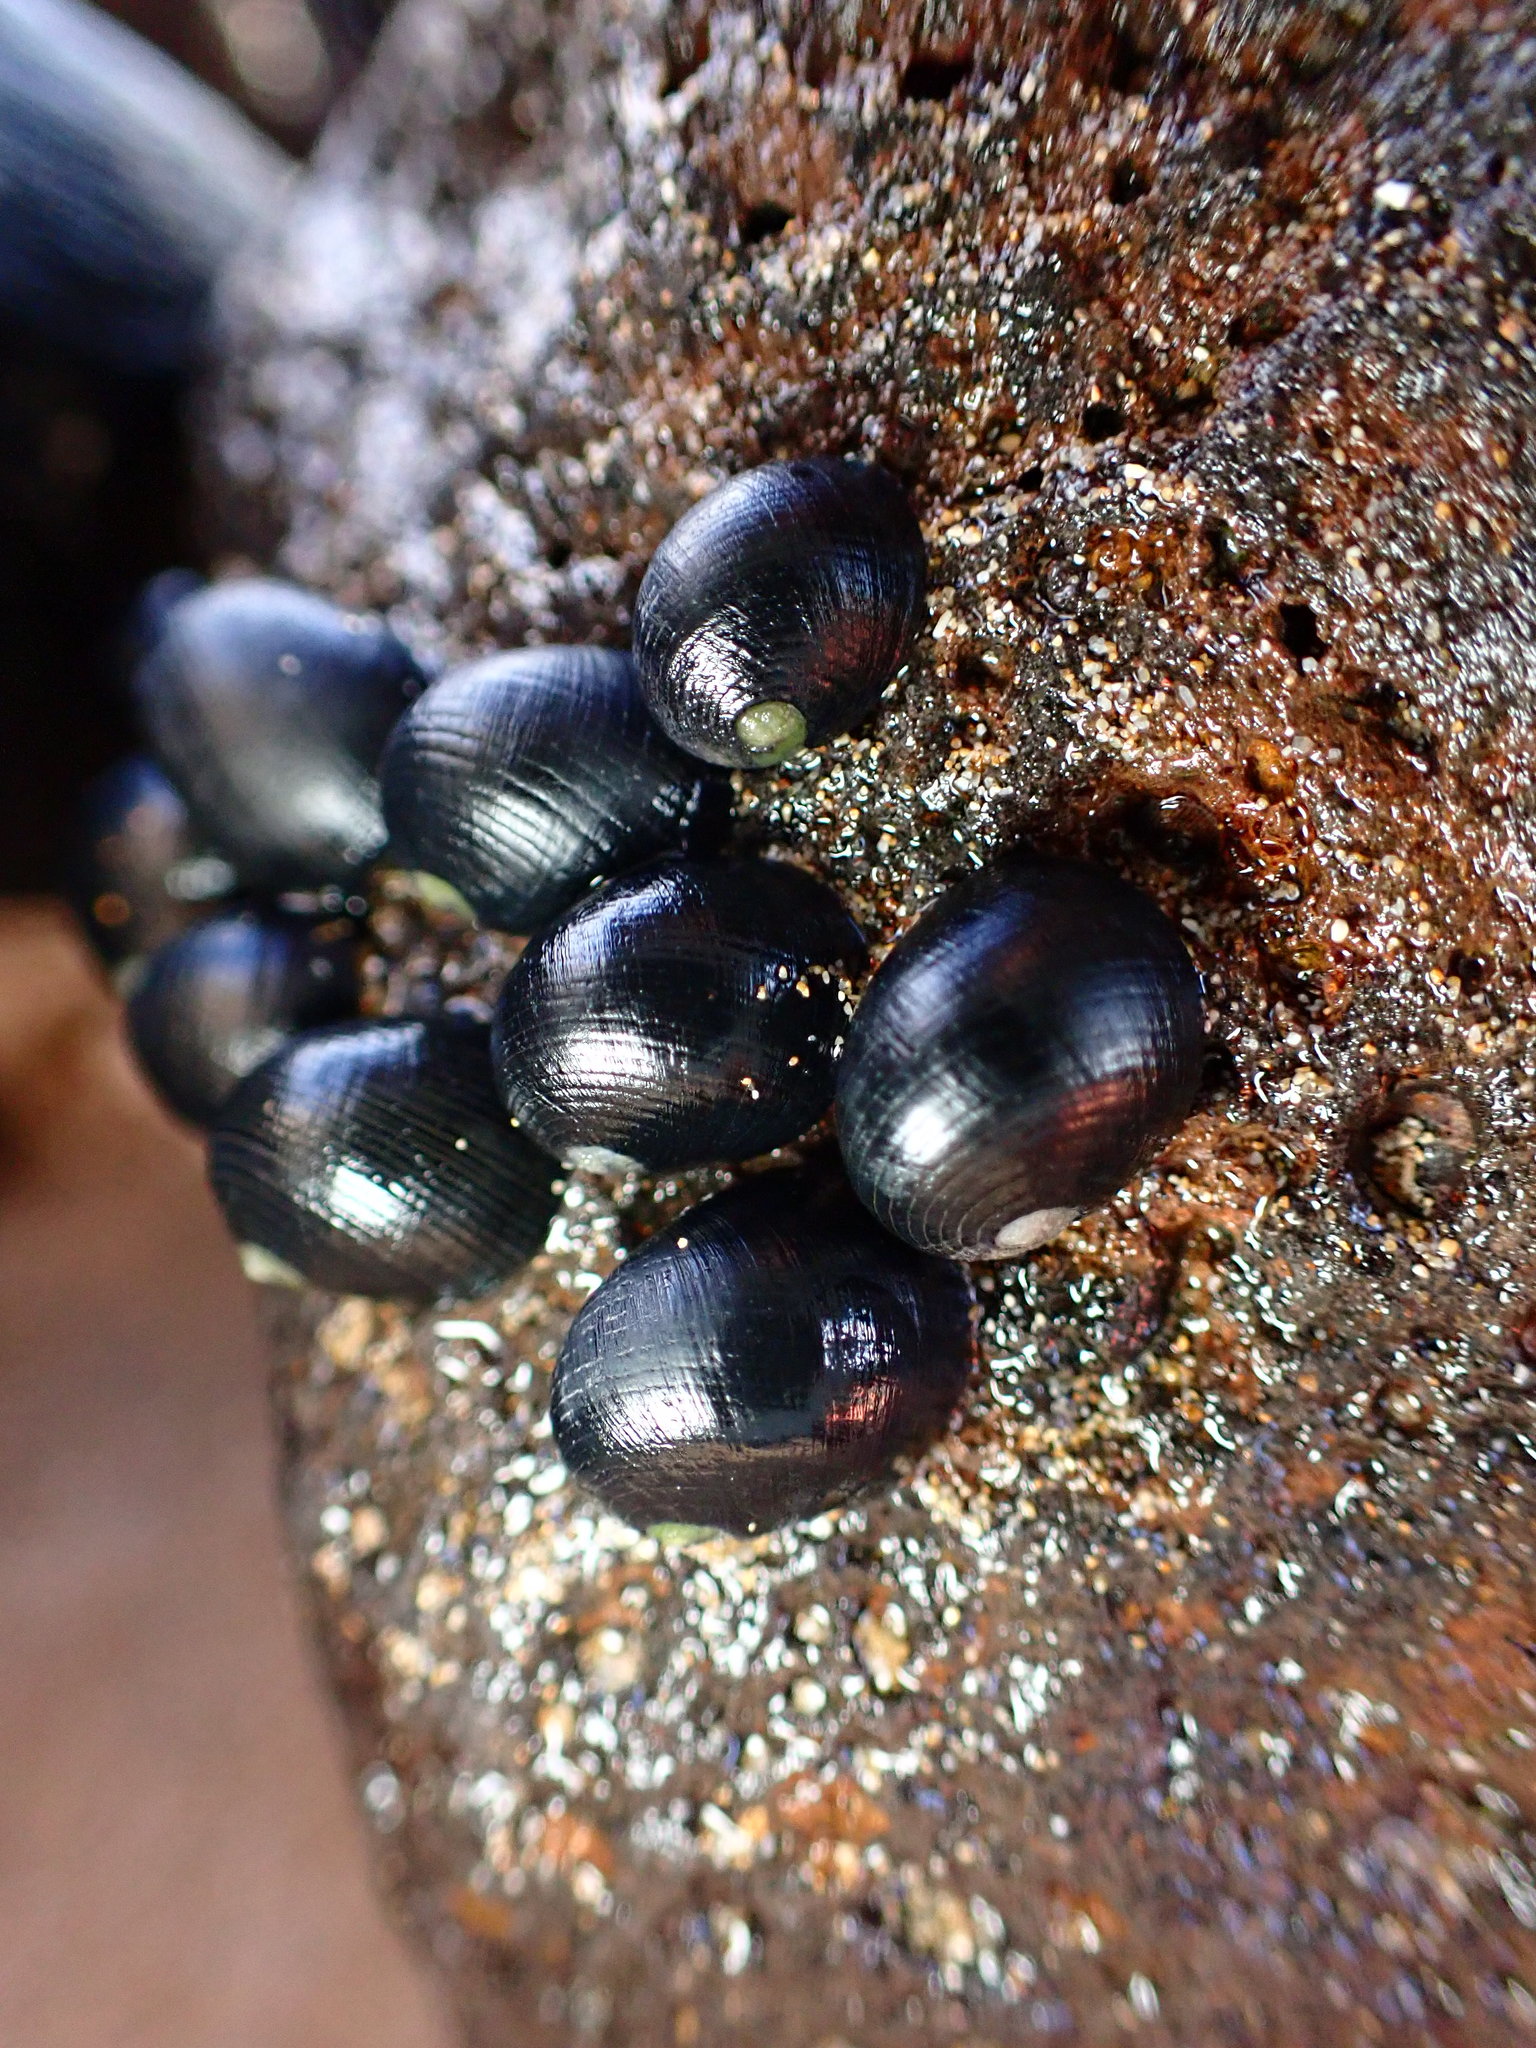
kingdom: Animalia
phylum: Mollusca
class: Gastropoda
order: Cycloneritida
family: Neritidae
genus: Nerita
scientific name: Nerita picea
